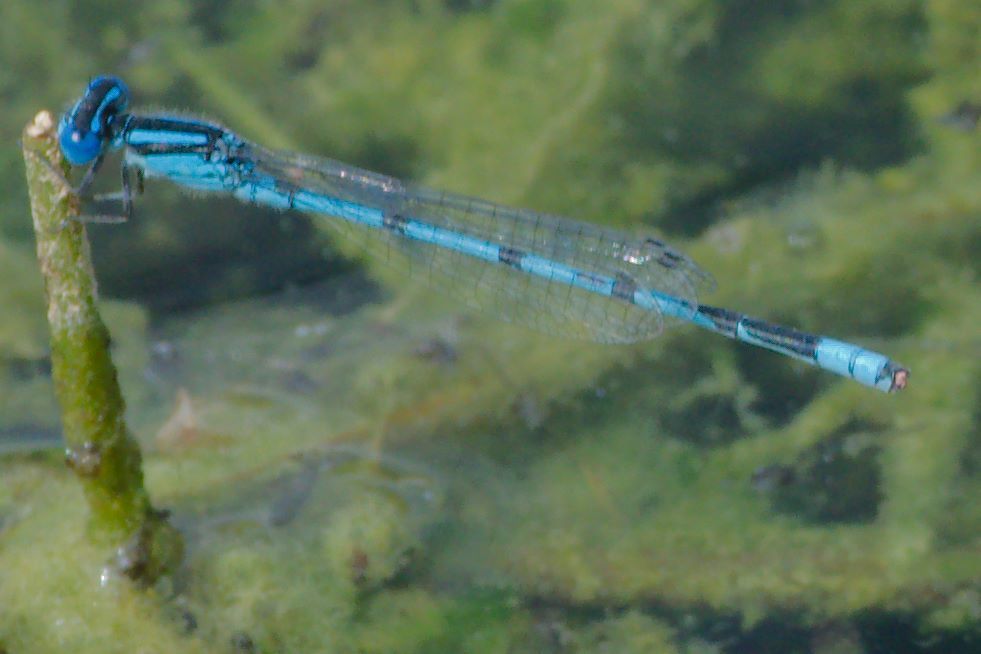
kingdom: Animalia
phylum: Arthropoda
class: Insecta
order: Odonata
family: Coenagrionidae
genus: Enallagma
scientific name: Enallagma civile
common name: Damselfly
